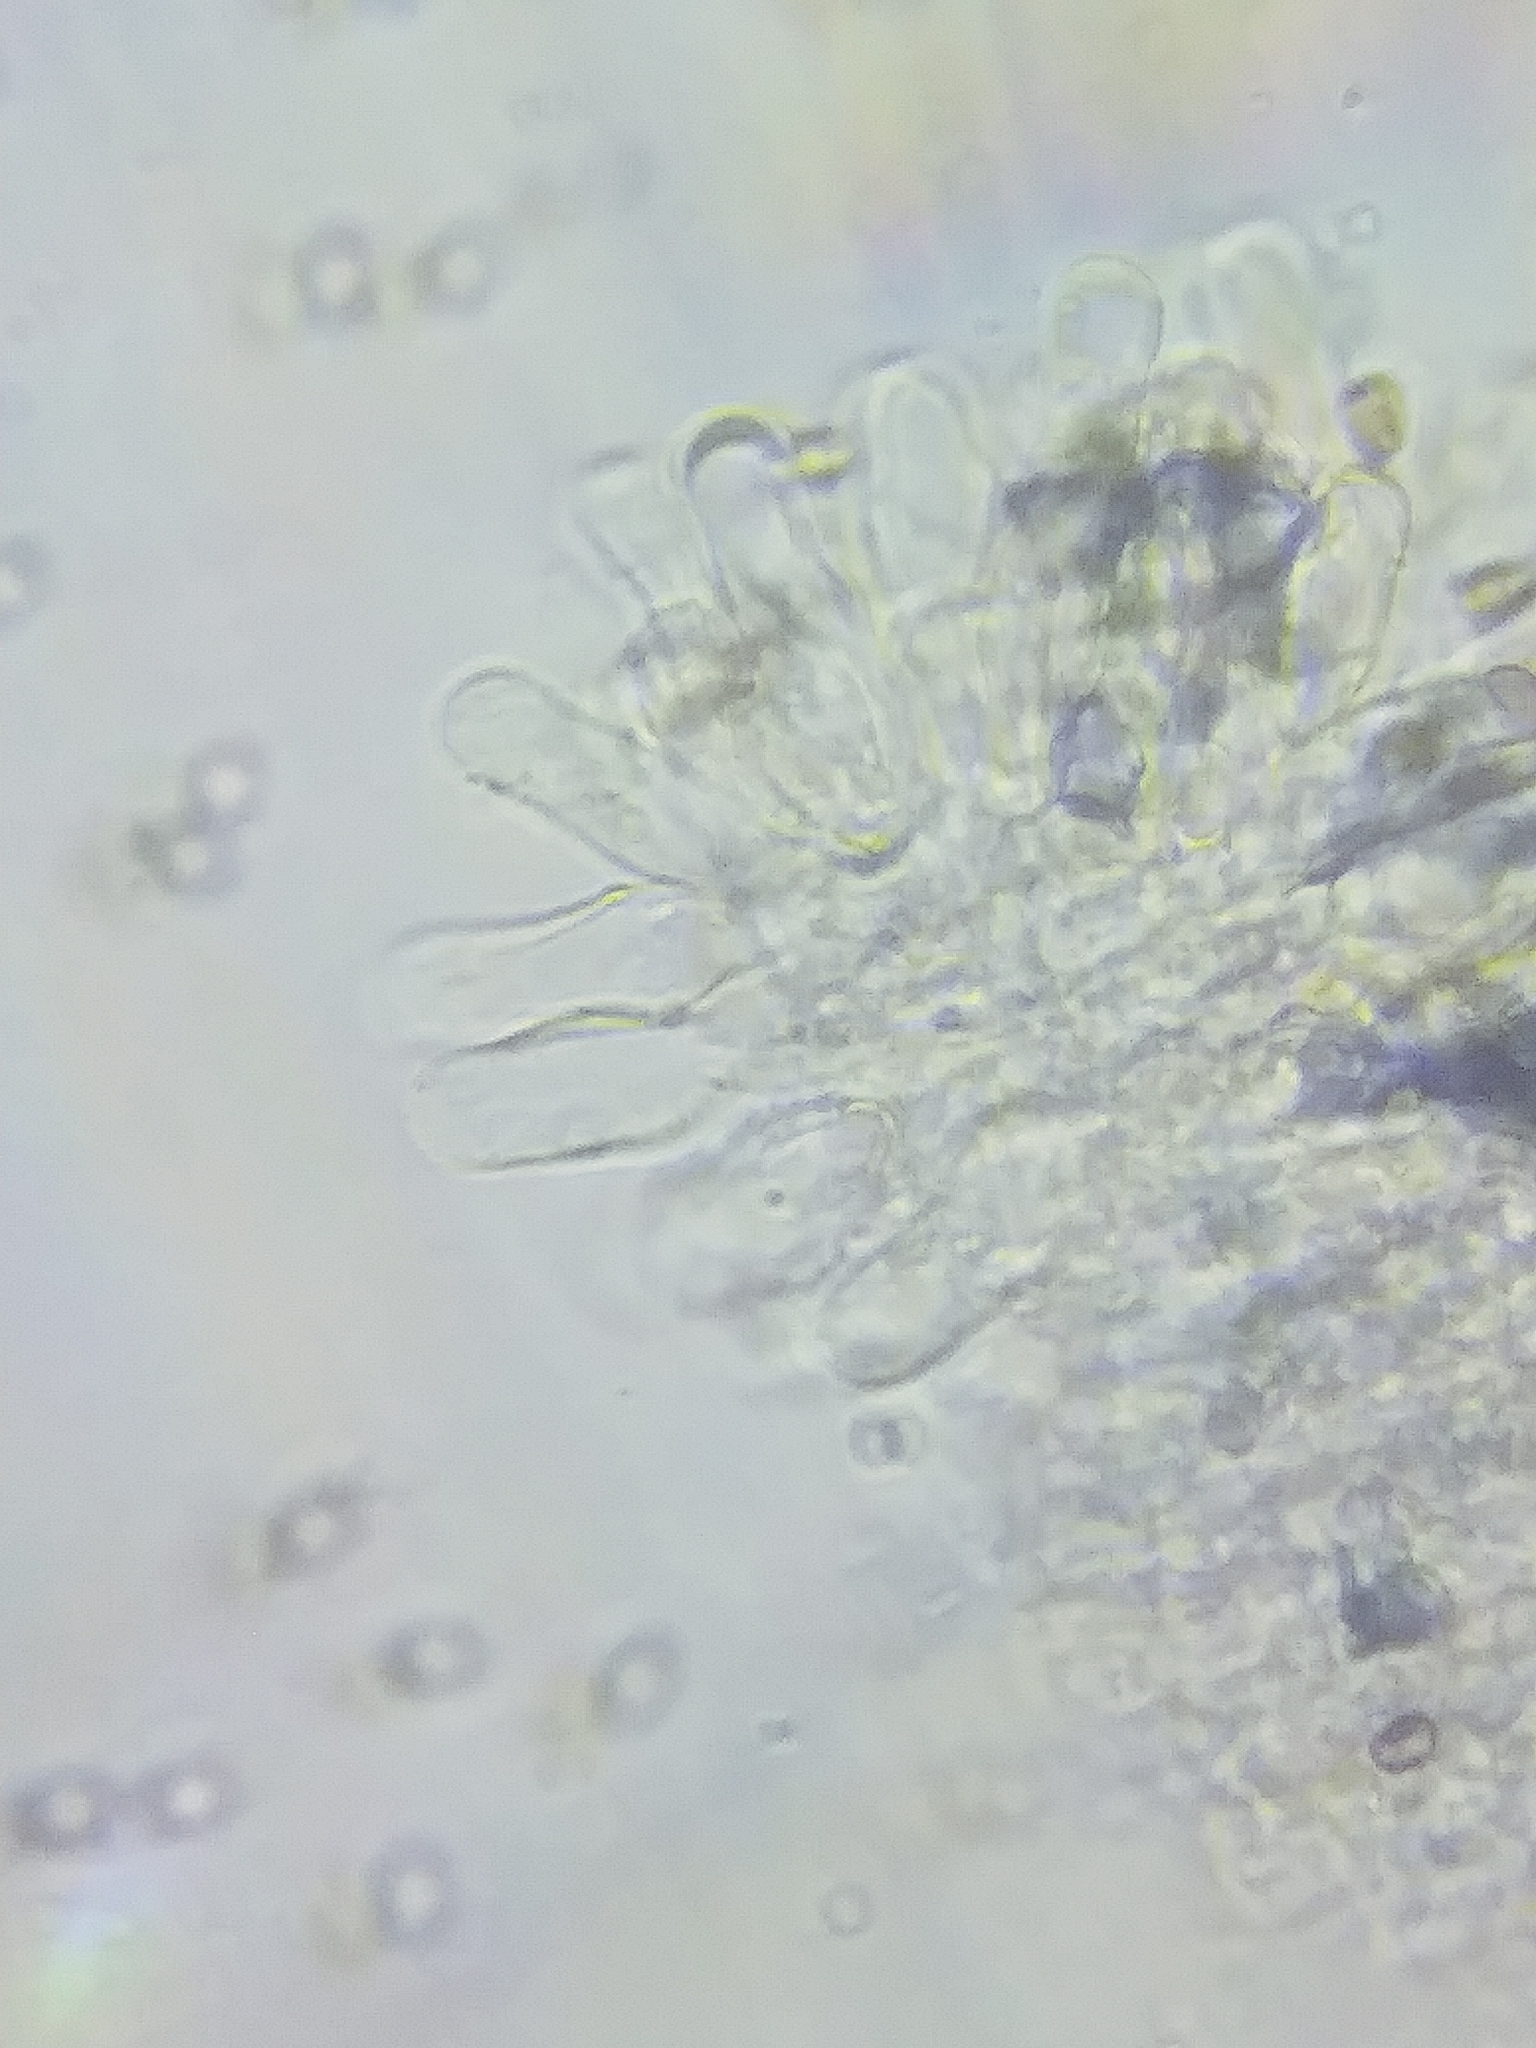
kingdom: Fungi
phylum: Basidiomycota
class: Agaricomycetes
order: Agaricales
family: Psathyrellaceae
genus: Candolleomyces
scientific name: Candolleomyces candolleanus
